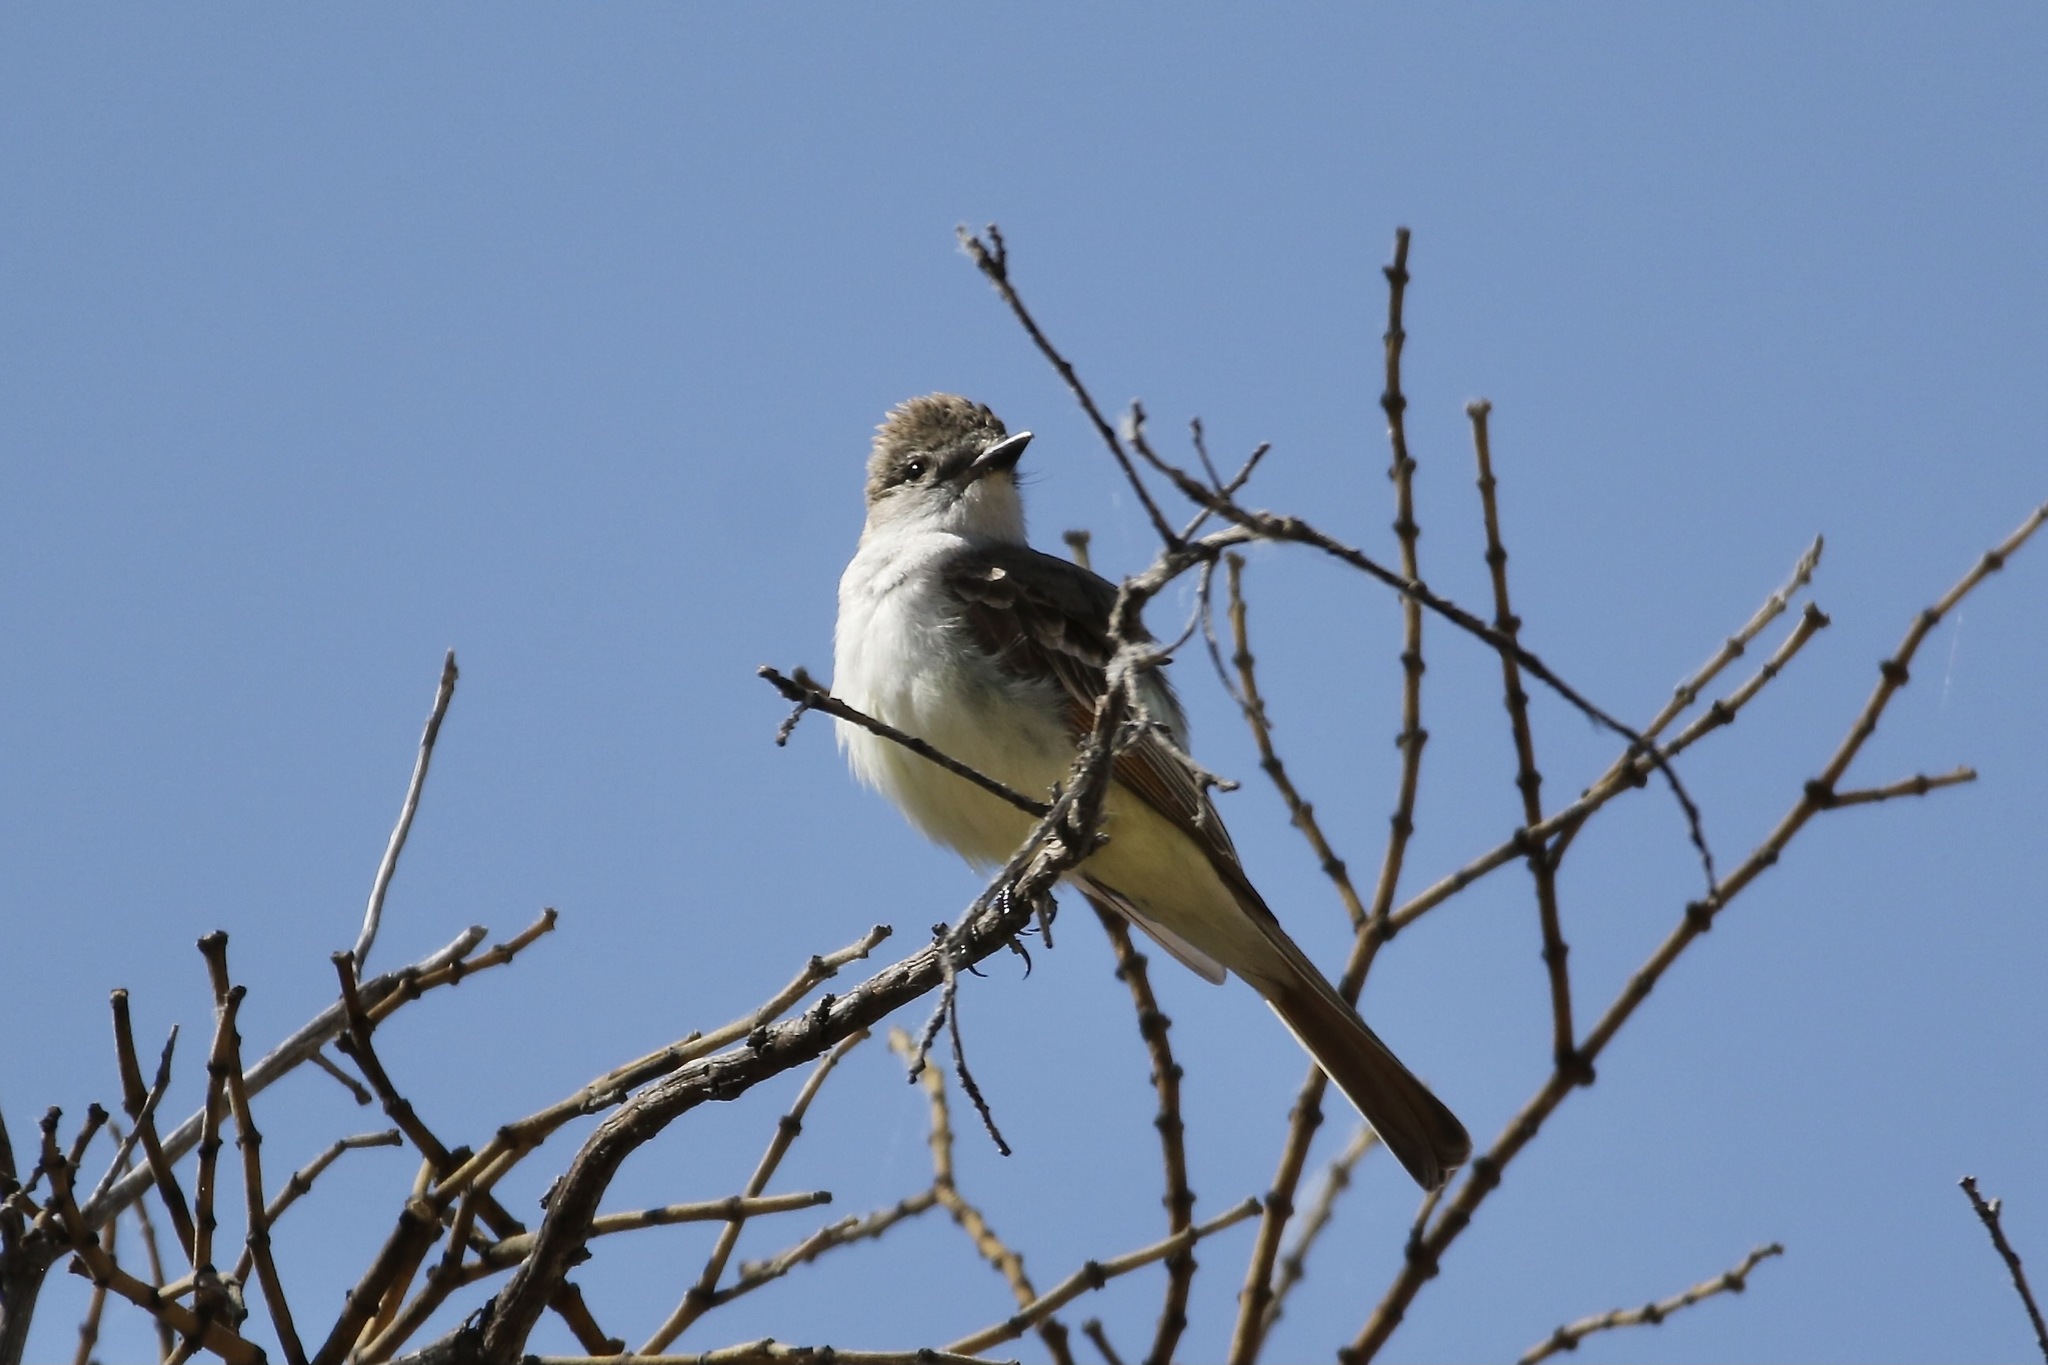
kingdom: Animalia
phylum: Chordata
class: Aves
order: Passeriformes
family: Tyrannidae
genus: Myiarchus
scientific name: Myiarchus cinerascens
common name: Ash-throated flycatcher
